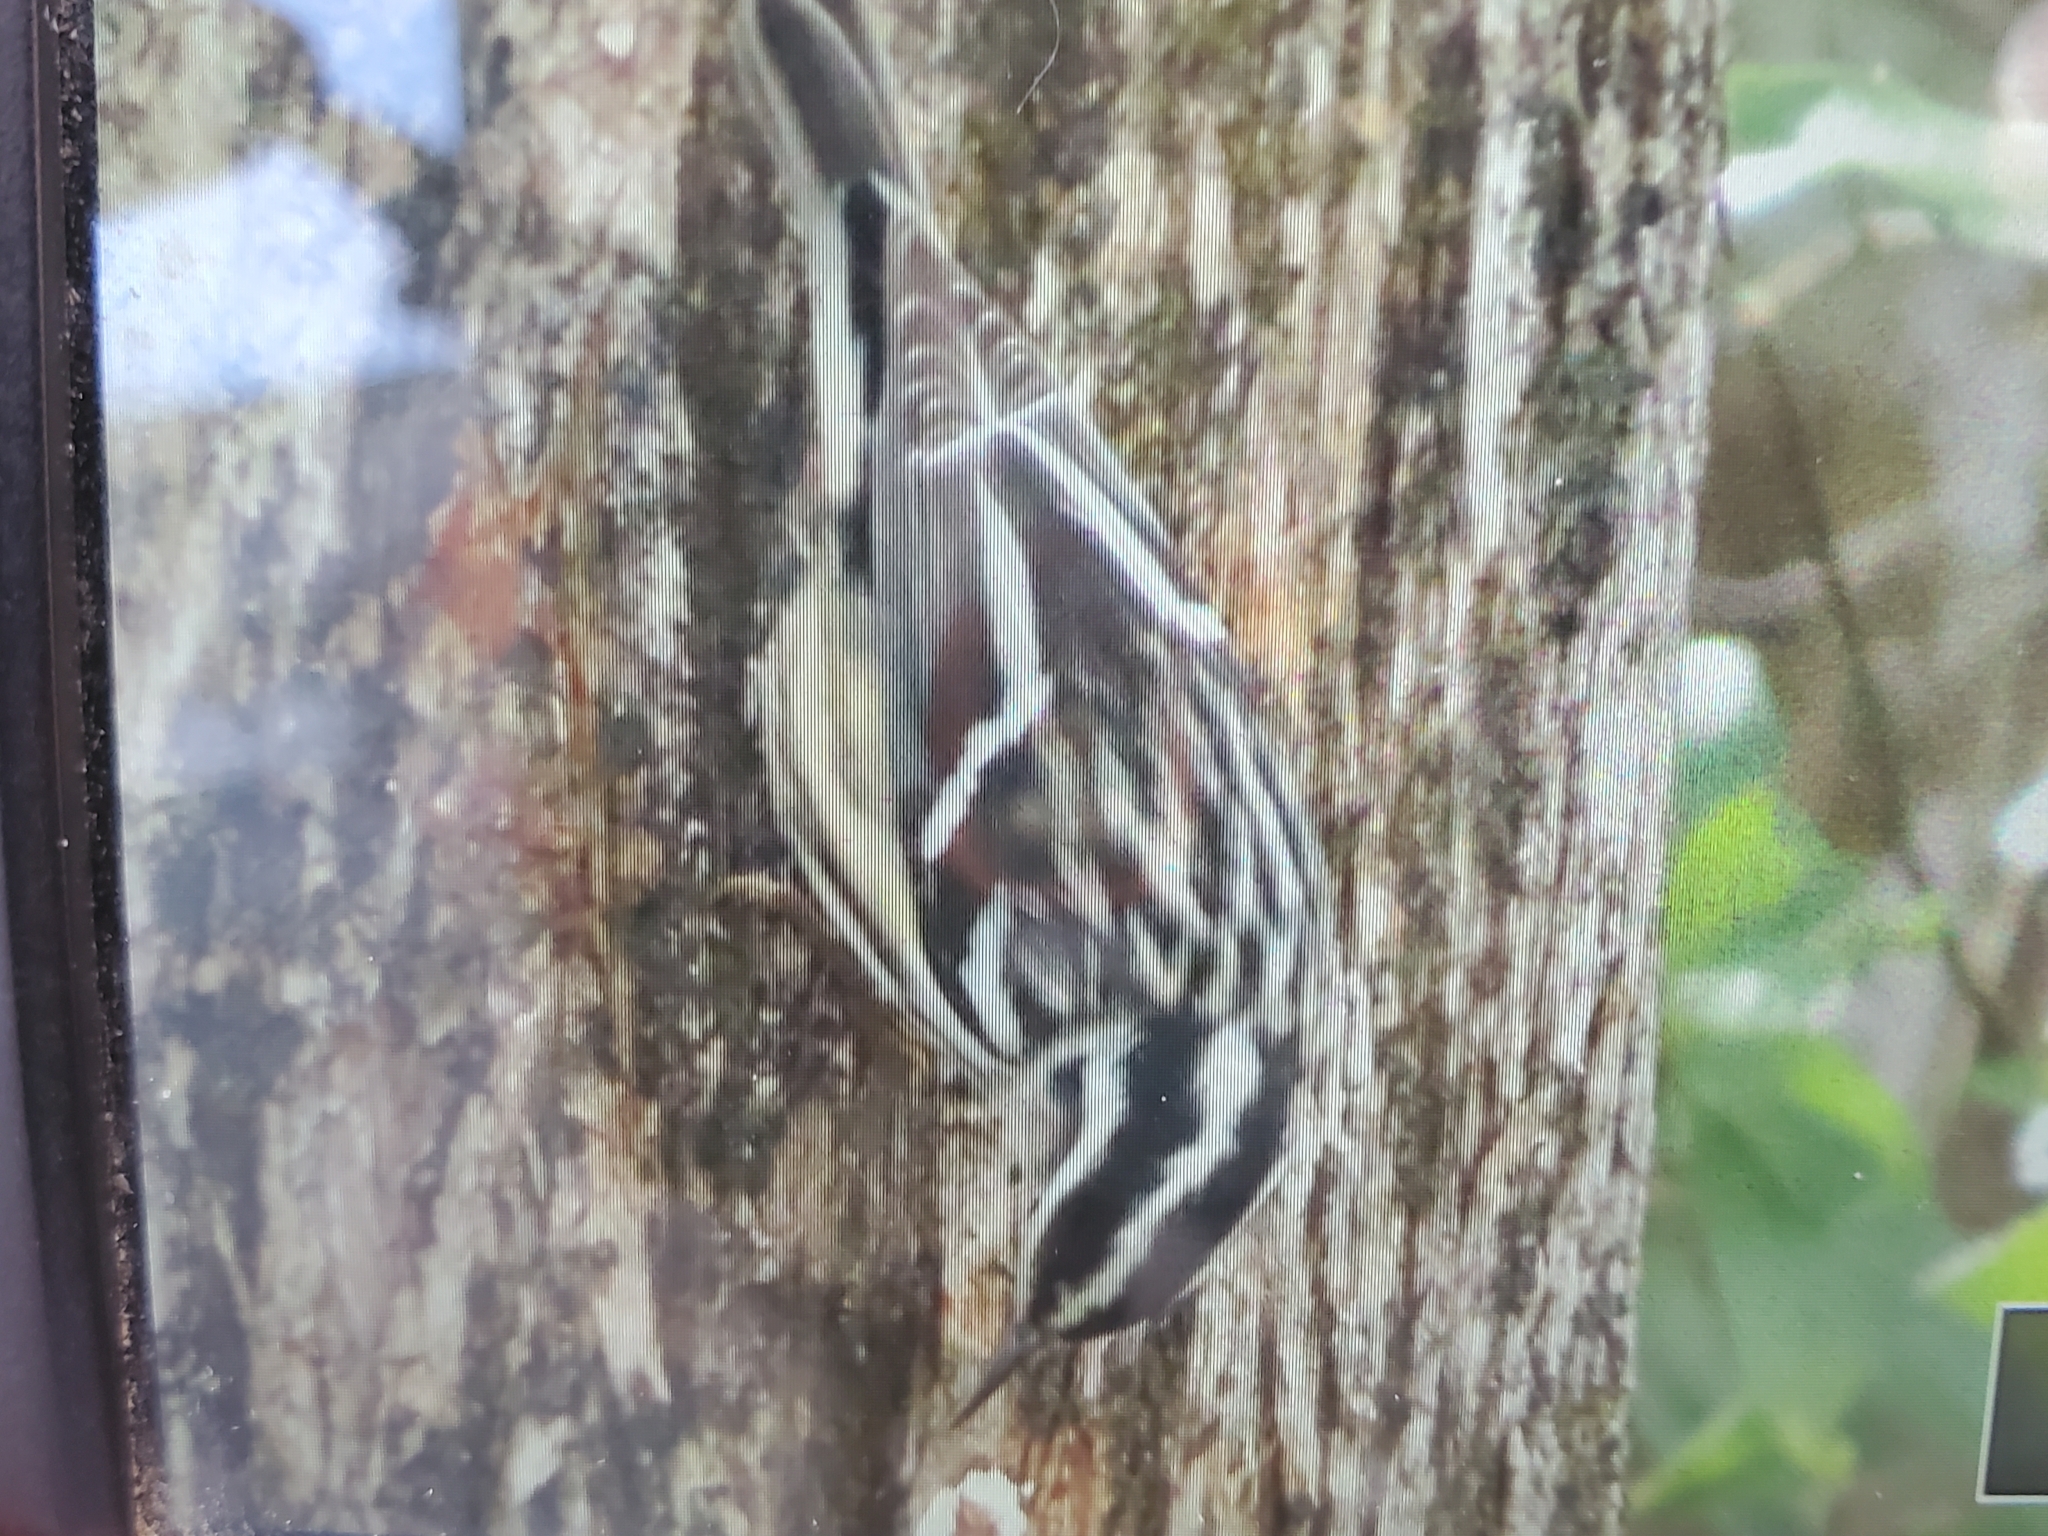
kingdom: Animalia
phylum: Chordata
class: Aves
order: Passeriformes
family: Parulidae
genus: Mniotilta
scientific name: Mniotilta varia
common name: Black-and-white warbler
